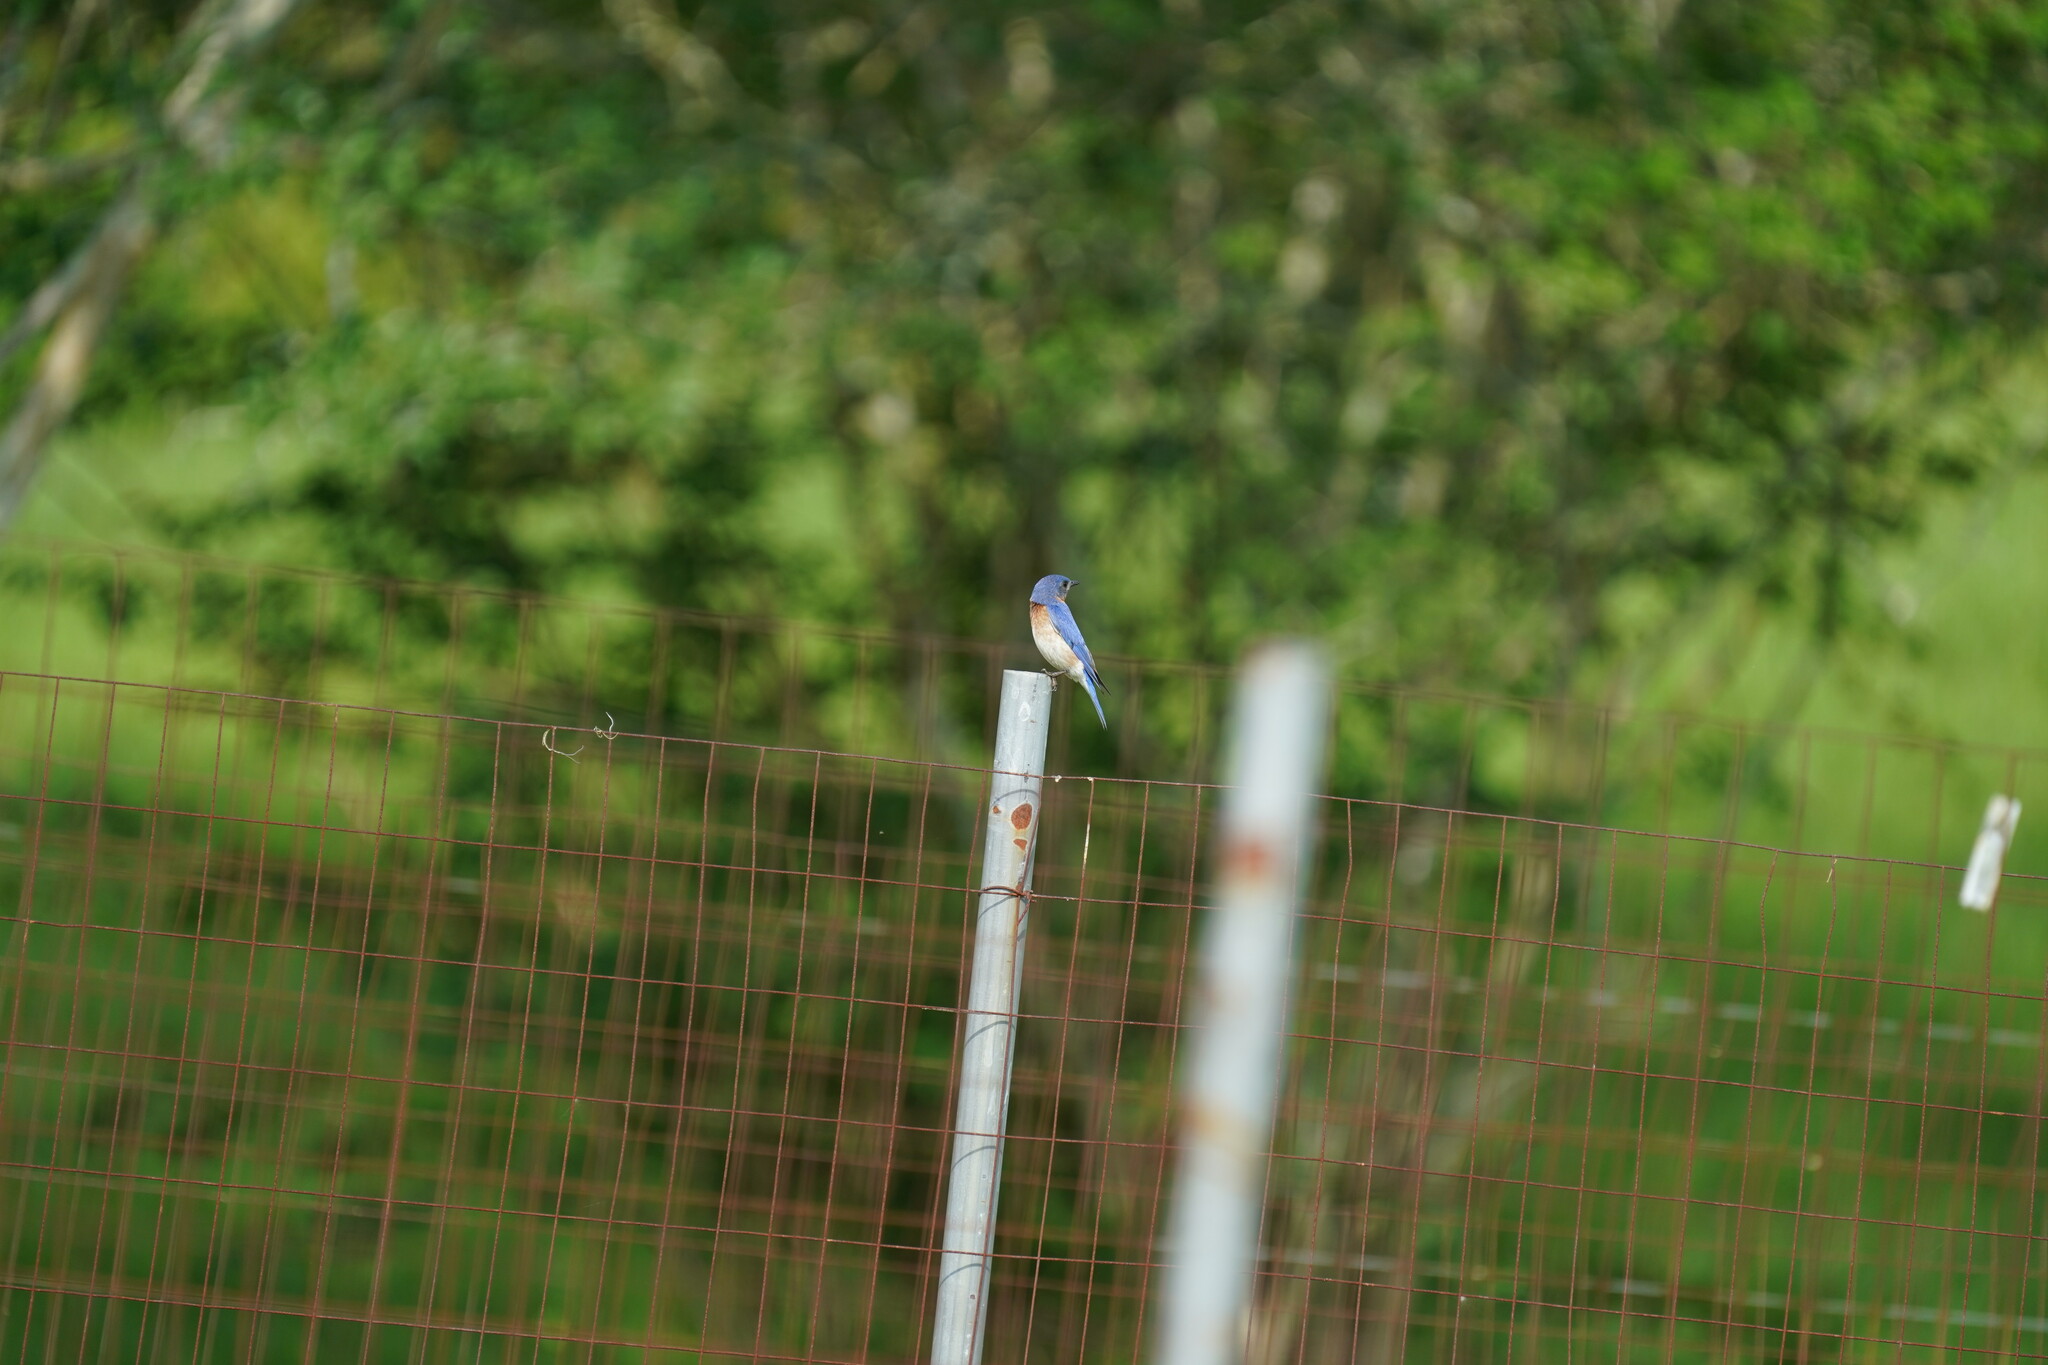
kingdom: Animalia
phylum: Chordata
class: Aves
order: Passeriformes
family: Turdidae
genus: Sialia
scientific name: Sialia sialis
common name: Eastern bluebird
